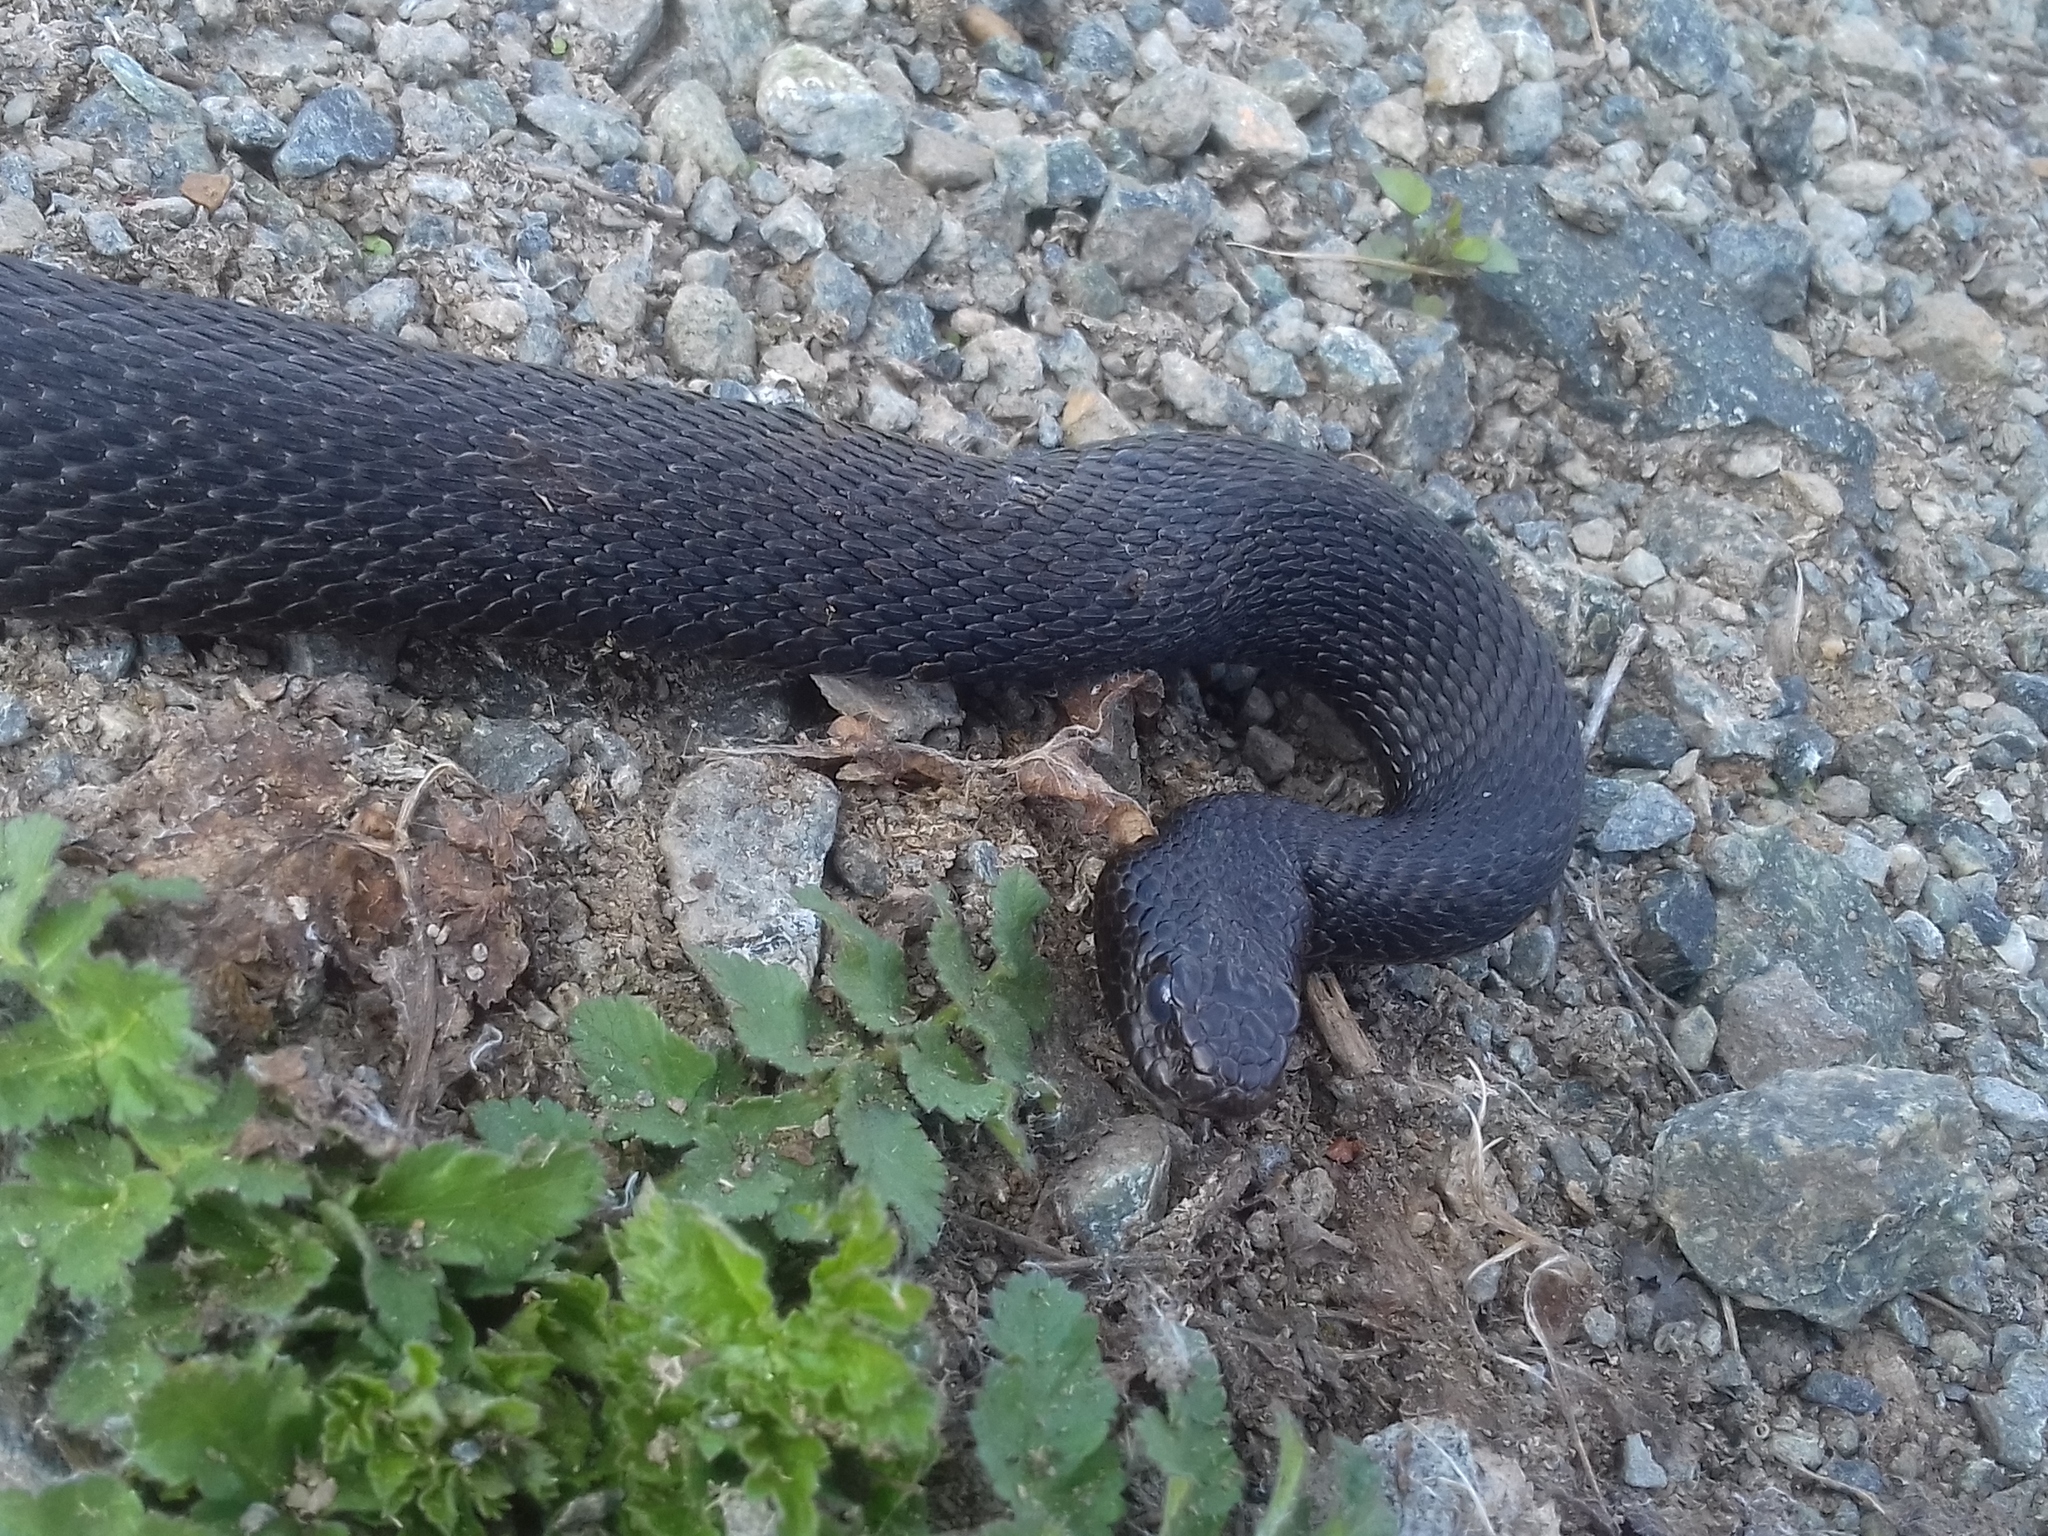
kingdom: Animalia
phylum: Chordata
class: Squamata
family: Viperidae
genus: Vipera
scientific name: Vipera berus
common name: Adder
